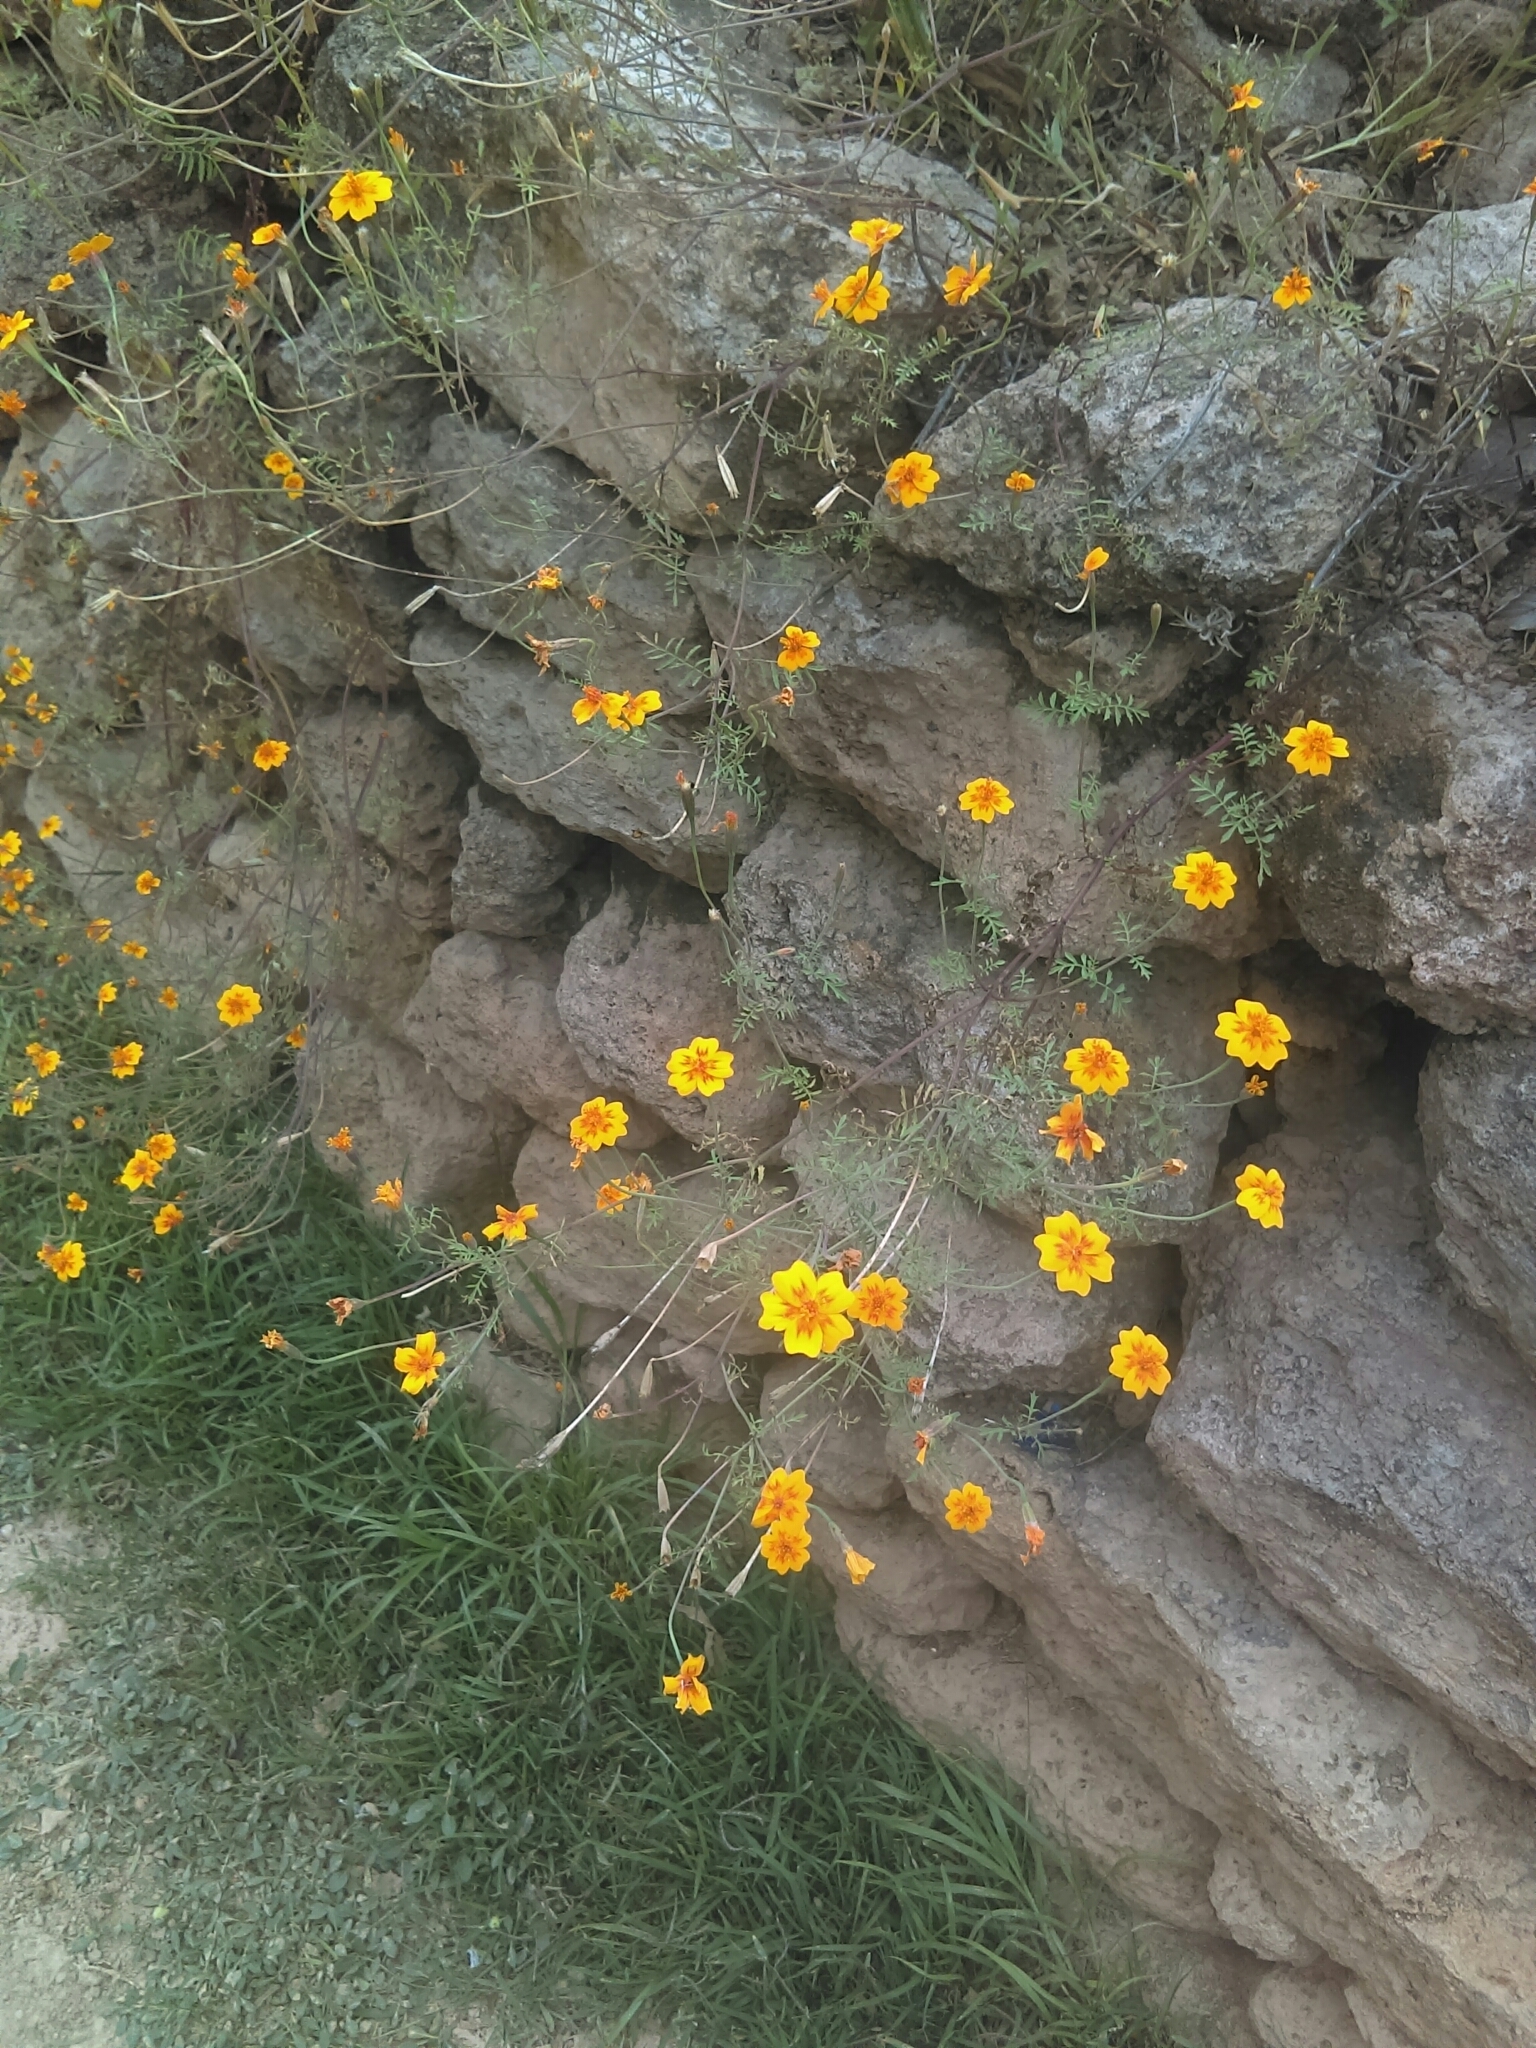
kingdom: Plantae
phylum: Tracheophyta
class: Magnoliopsida
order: Asterales
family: Asteraceae
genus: Tagetes
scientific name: Tagetes lunulata
